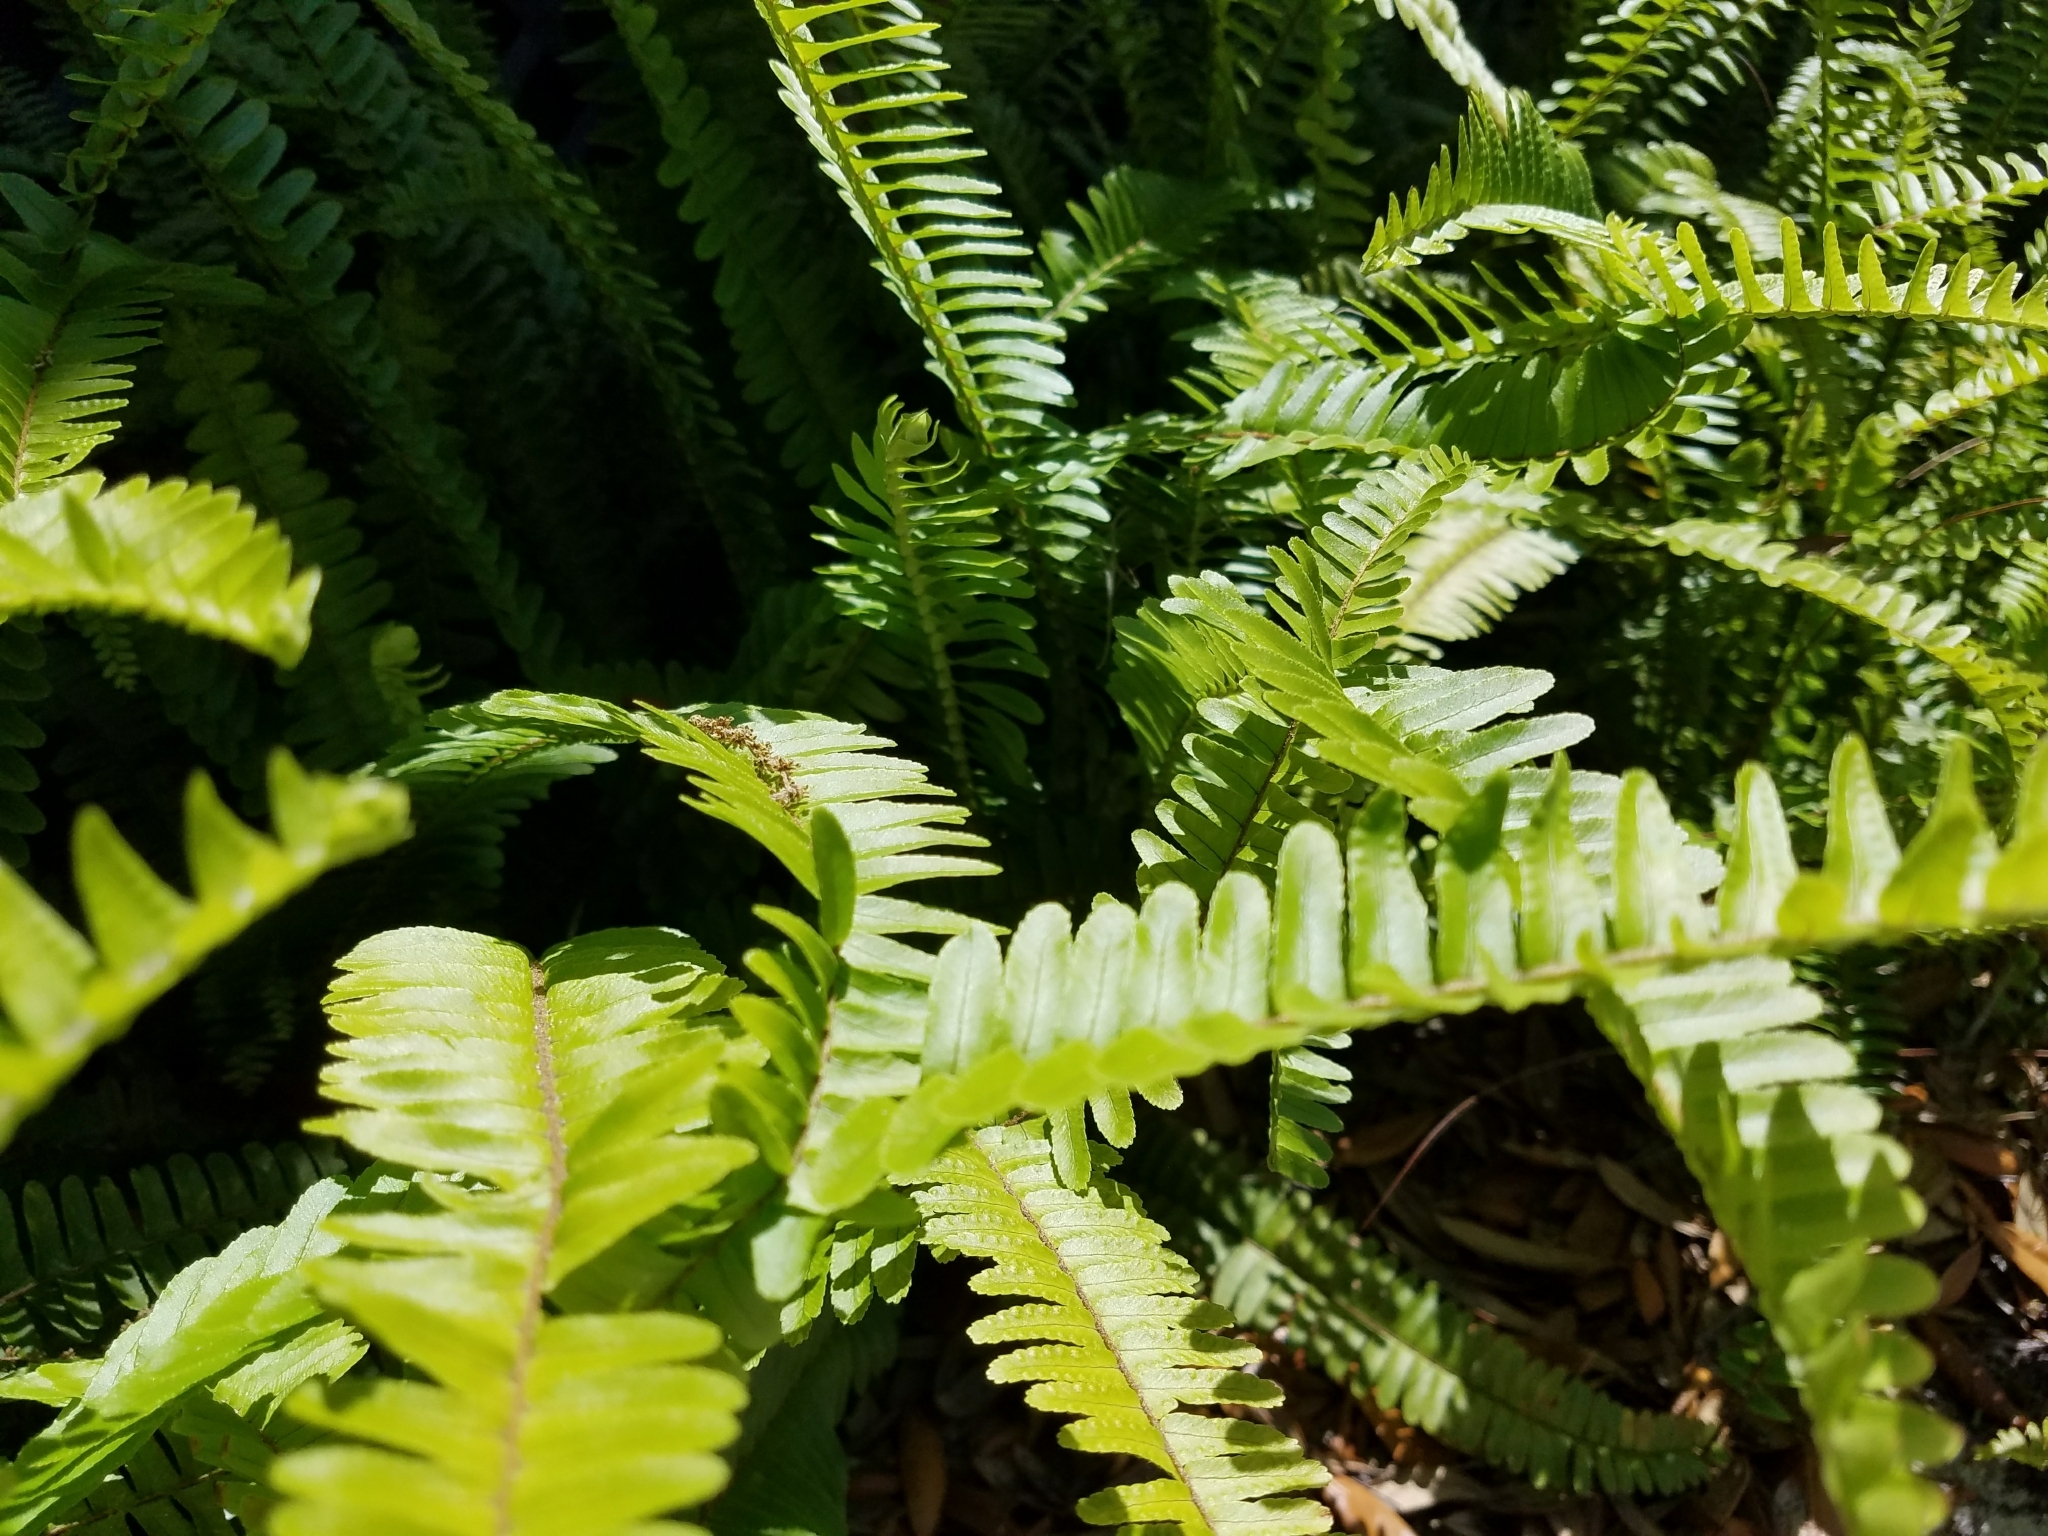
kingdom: Plantae
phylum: Tracheophyta
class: Polypodiopsida
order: Polypodiales
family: Nephrolepidaceae
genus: Nephrolepis
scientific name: Nephrolepis cordifolia
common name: Narrow swordfern
